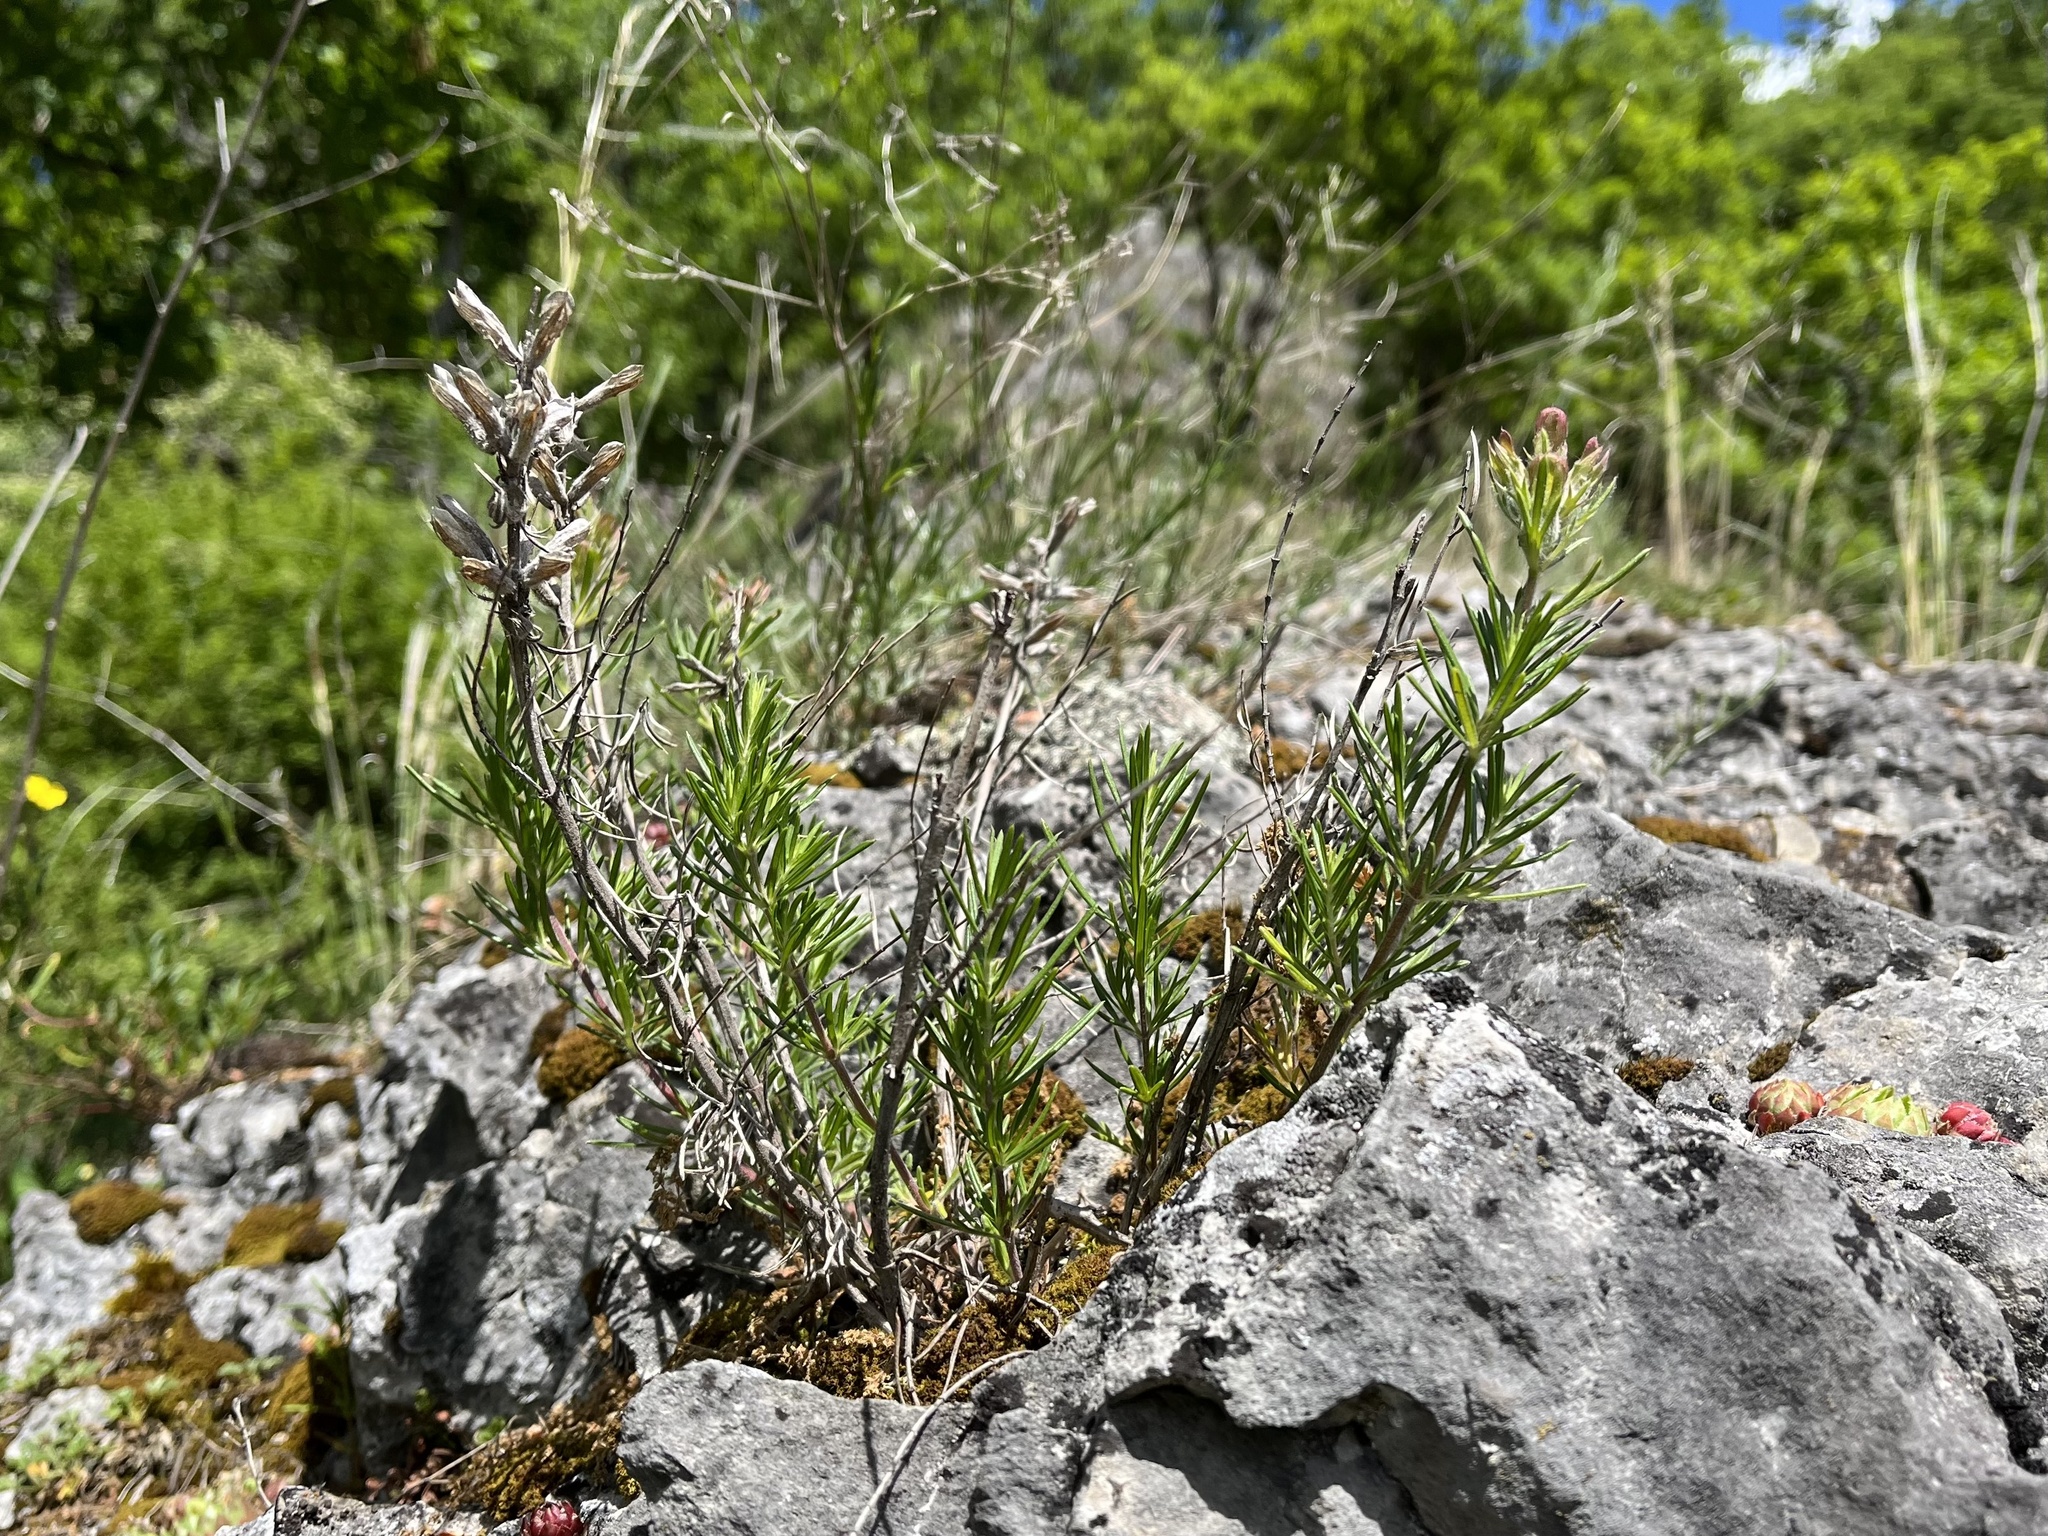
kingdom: Plantae
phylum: Tracheophyta
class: Magnoliopsida
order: Lamiales
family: Lamiaceae
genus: Dracocephalum
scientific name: Dracocephalum austriacum
